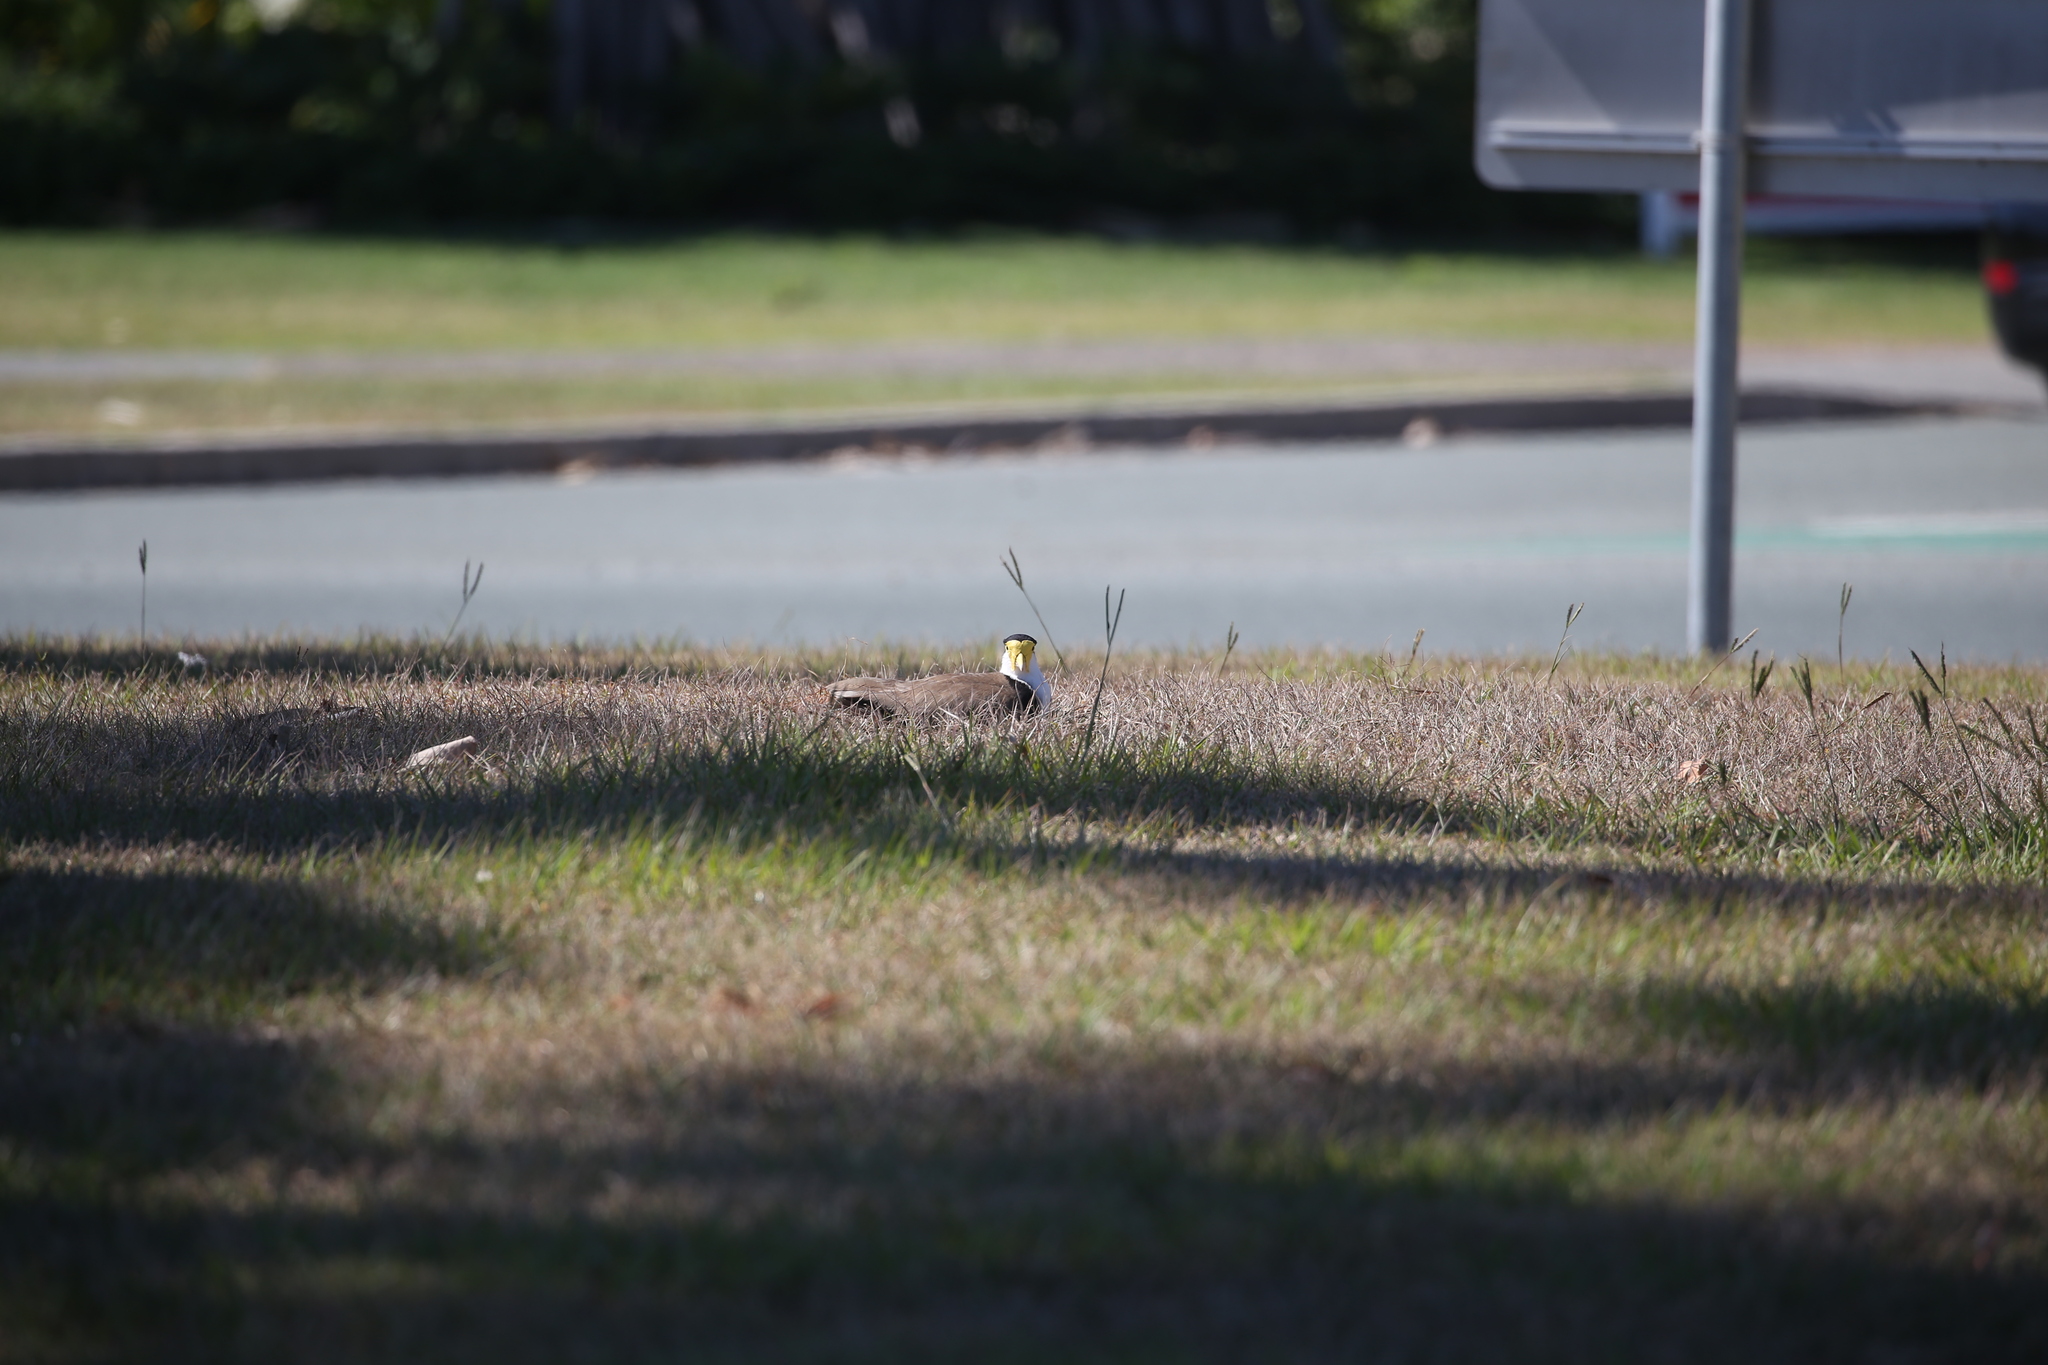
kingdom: Animalia
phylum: Chordata
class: Aves
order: Charadriiformes
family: Charadriidae
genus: Vanellus
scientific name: Vanellus miles
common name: Masked lapwing
